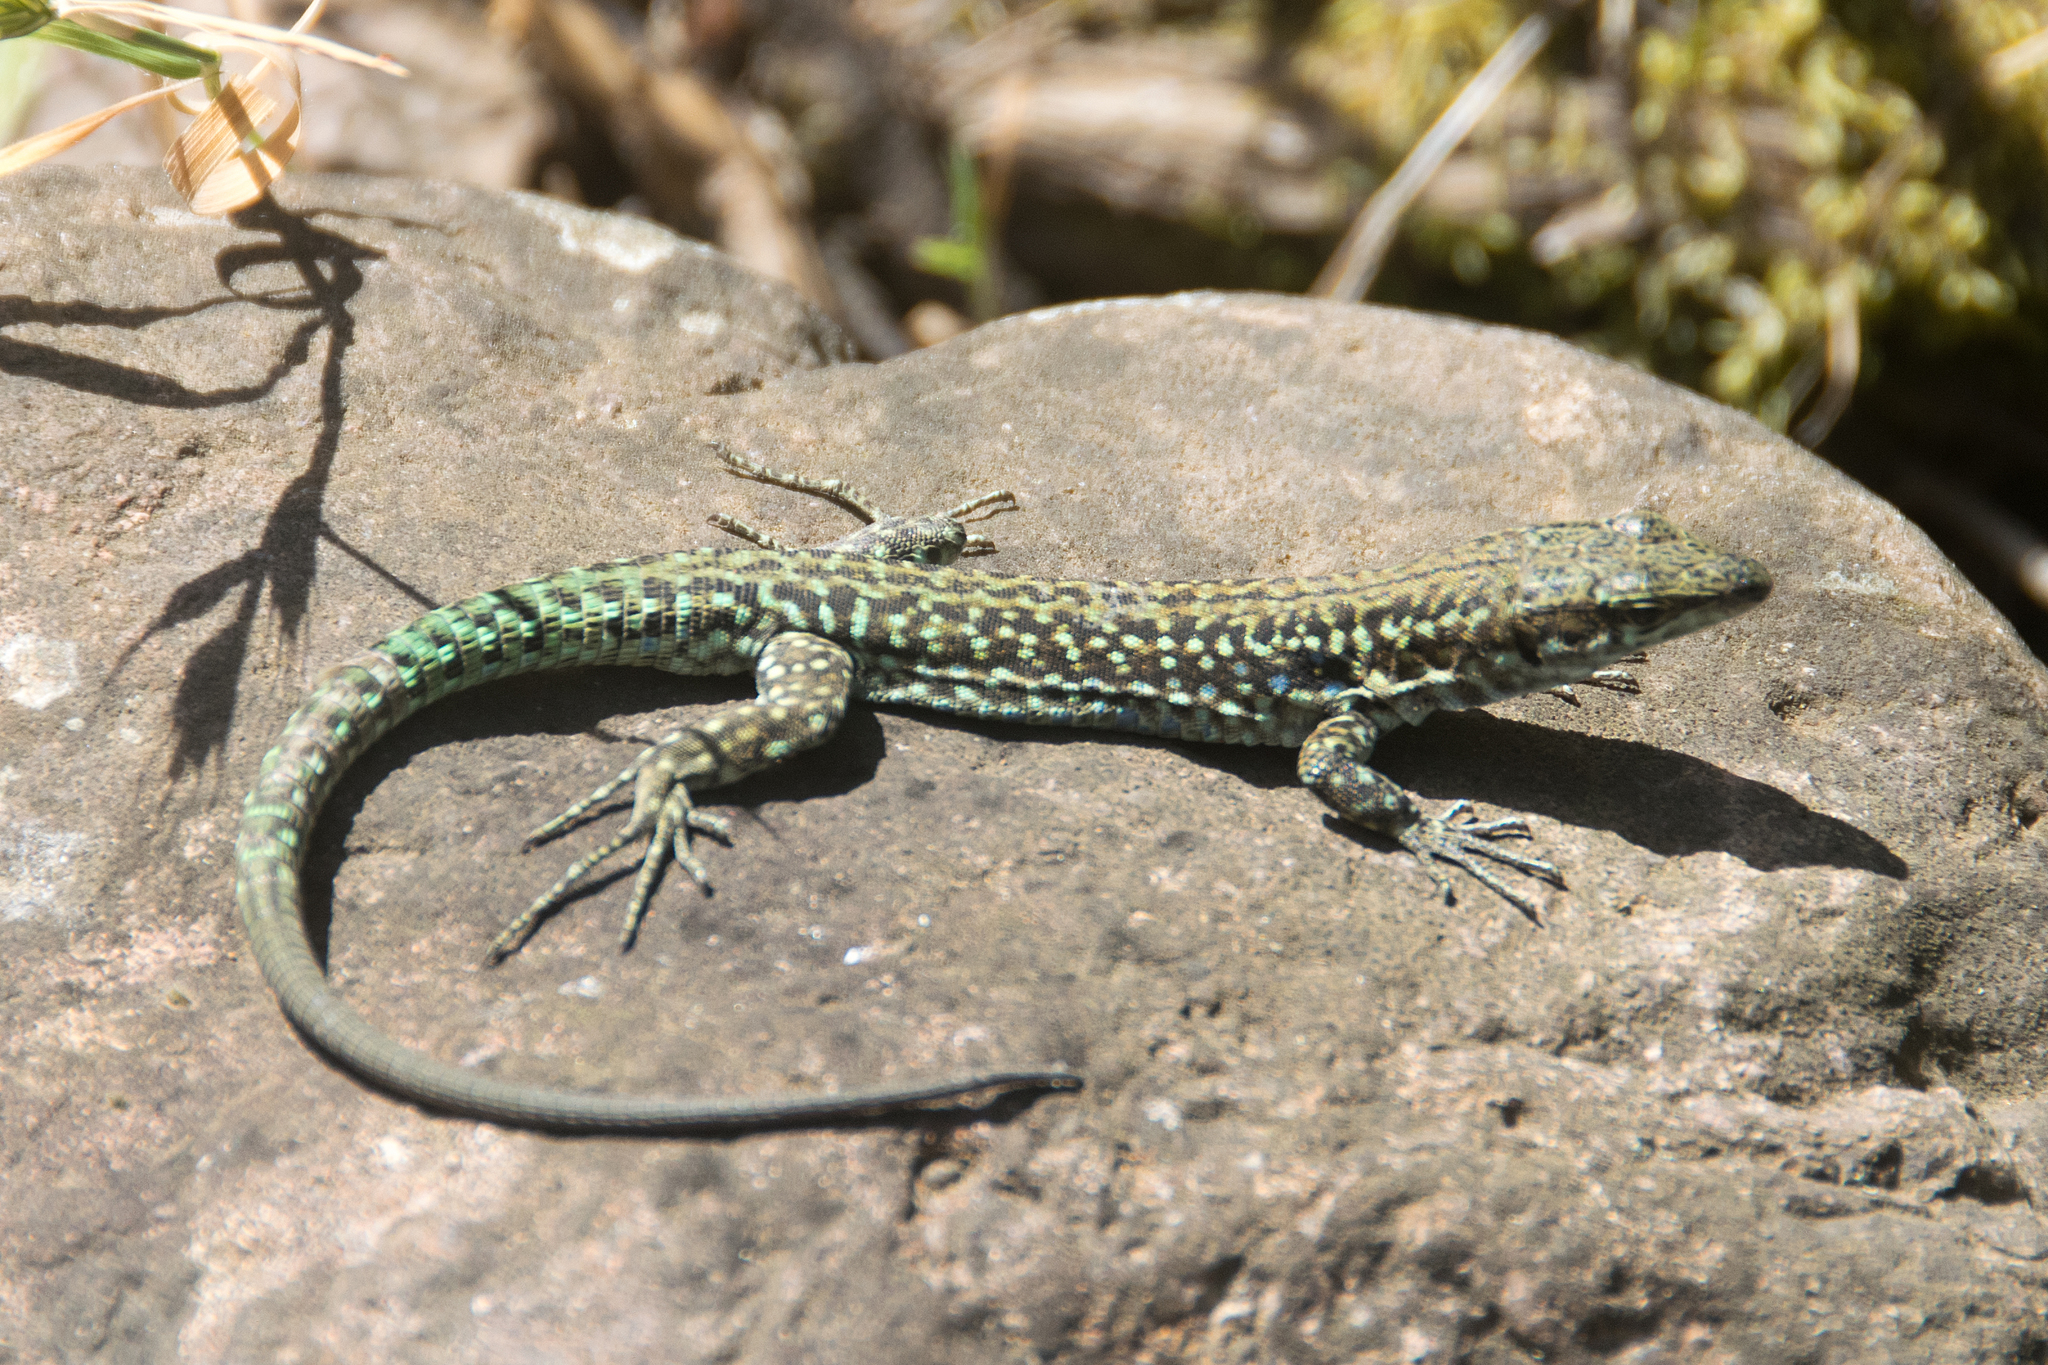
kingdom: Animalia
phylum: Chordata
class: Squamata
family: Lacertidae
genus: Podarcis
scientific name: Podarcis tiliguerta
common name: Tyrrhenian wall lizard
